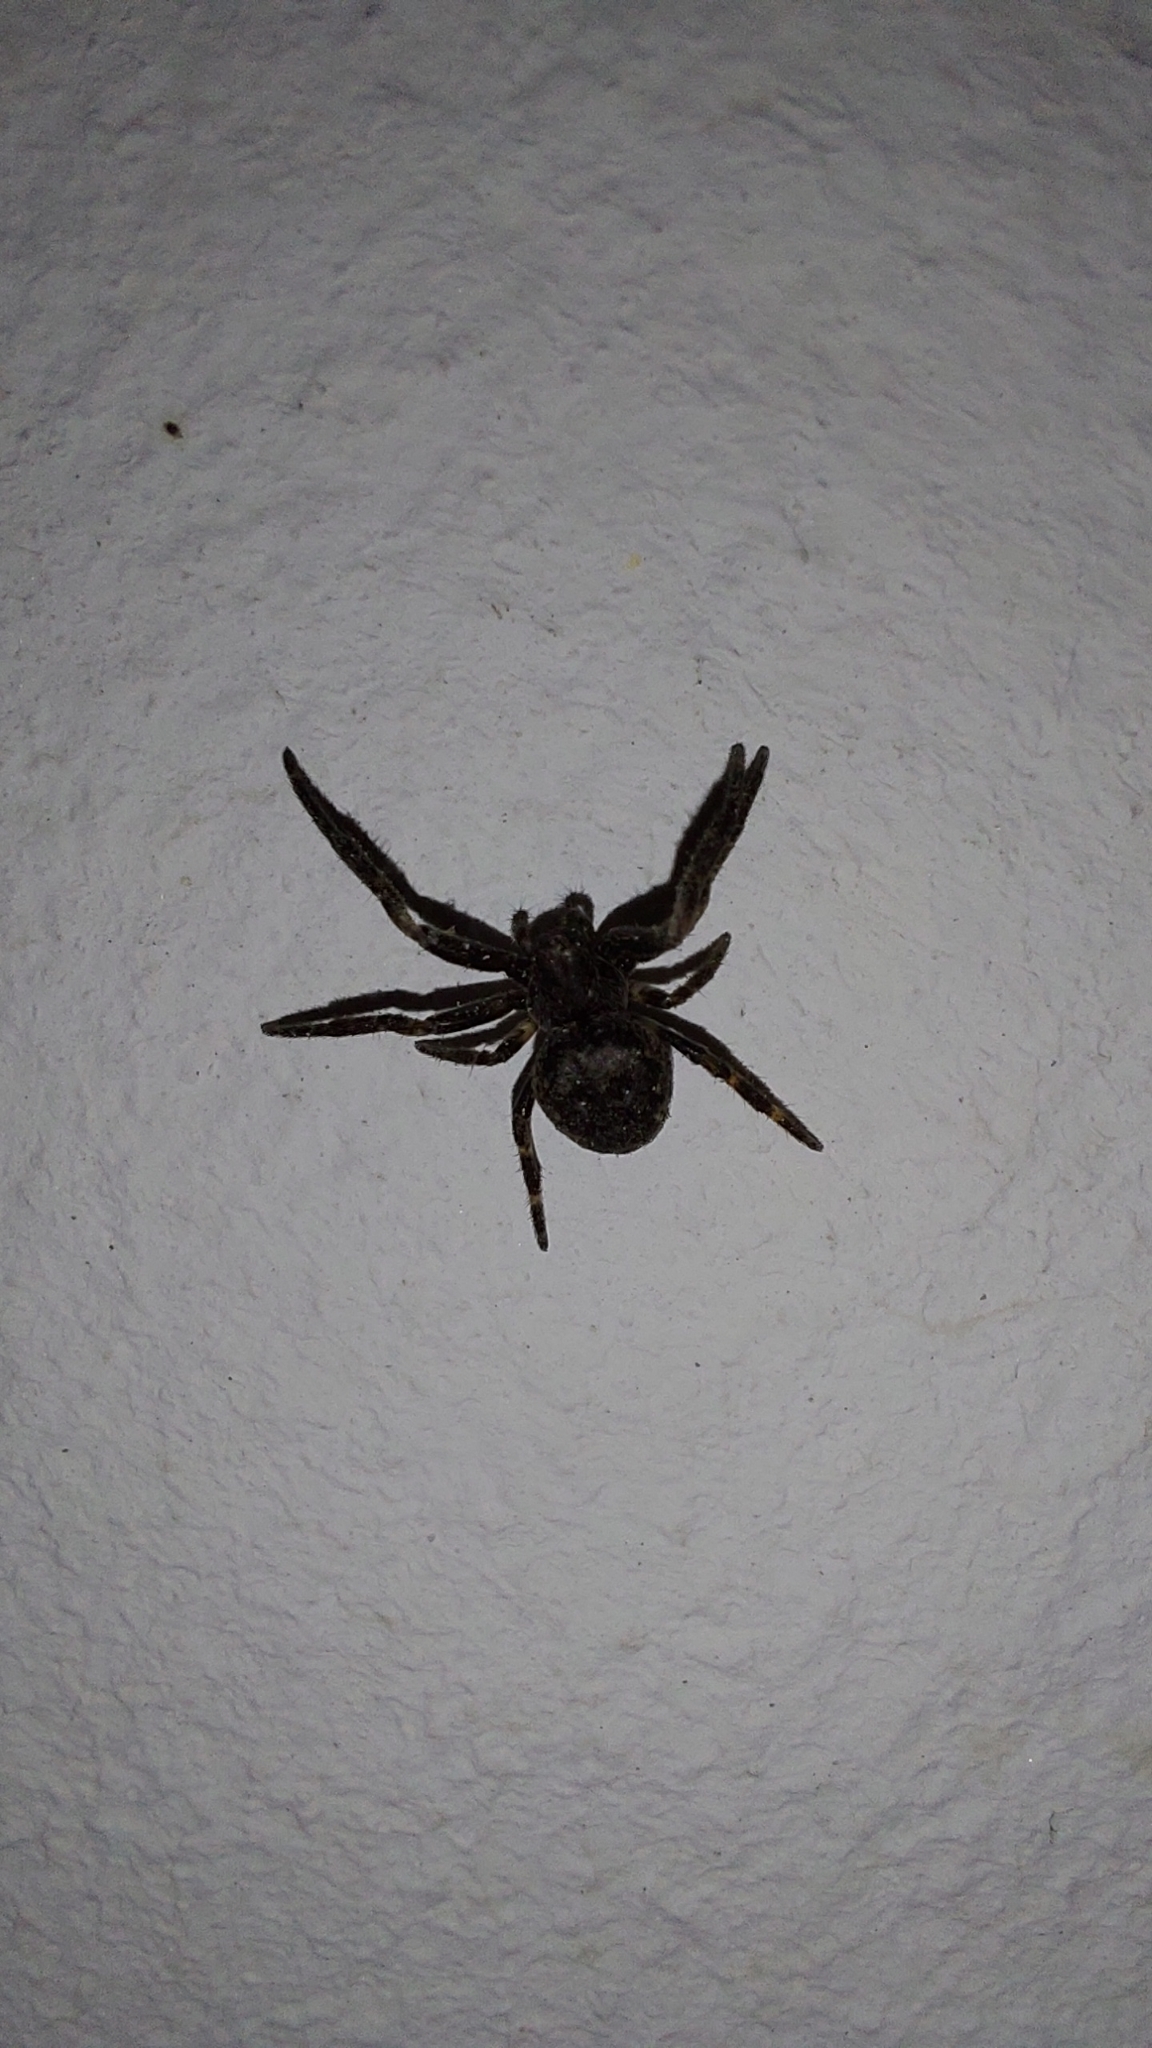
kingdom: Animalia
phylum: Arthropoda
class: Arachnida
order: Araneae
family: Araneidae
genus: Nuctenea
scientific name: Nuctenea umbratica
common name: Toad spider
